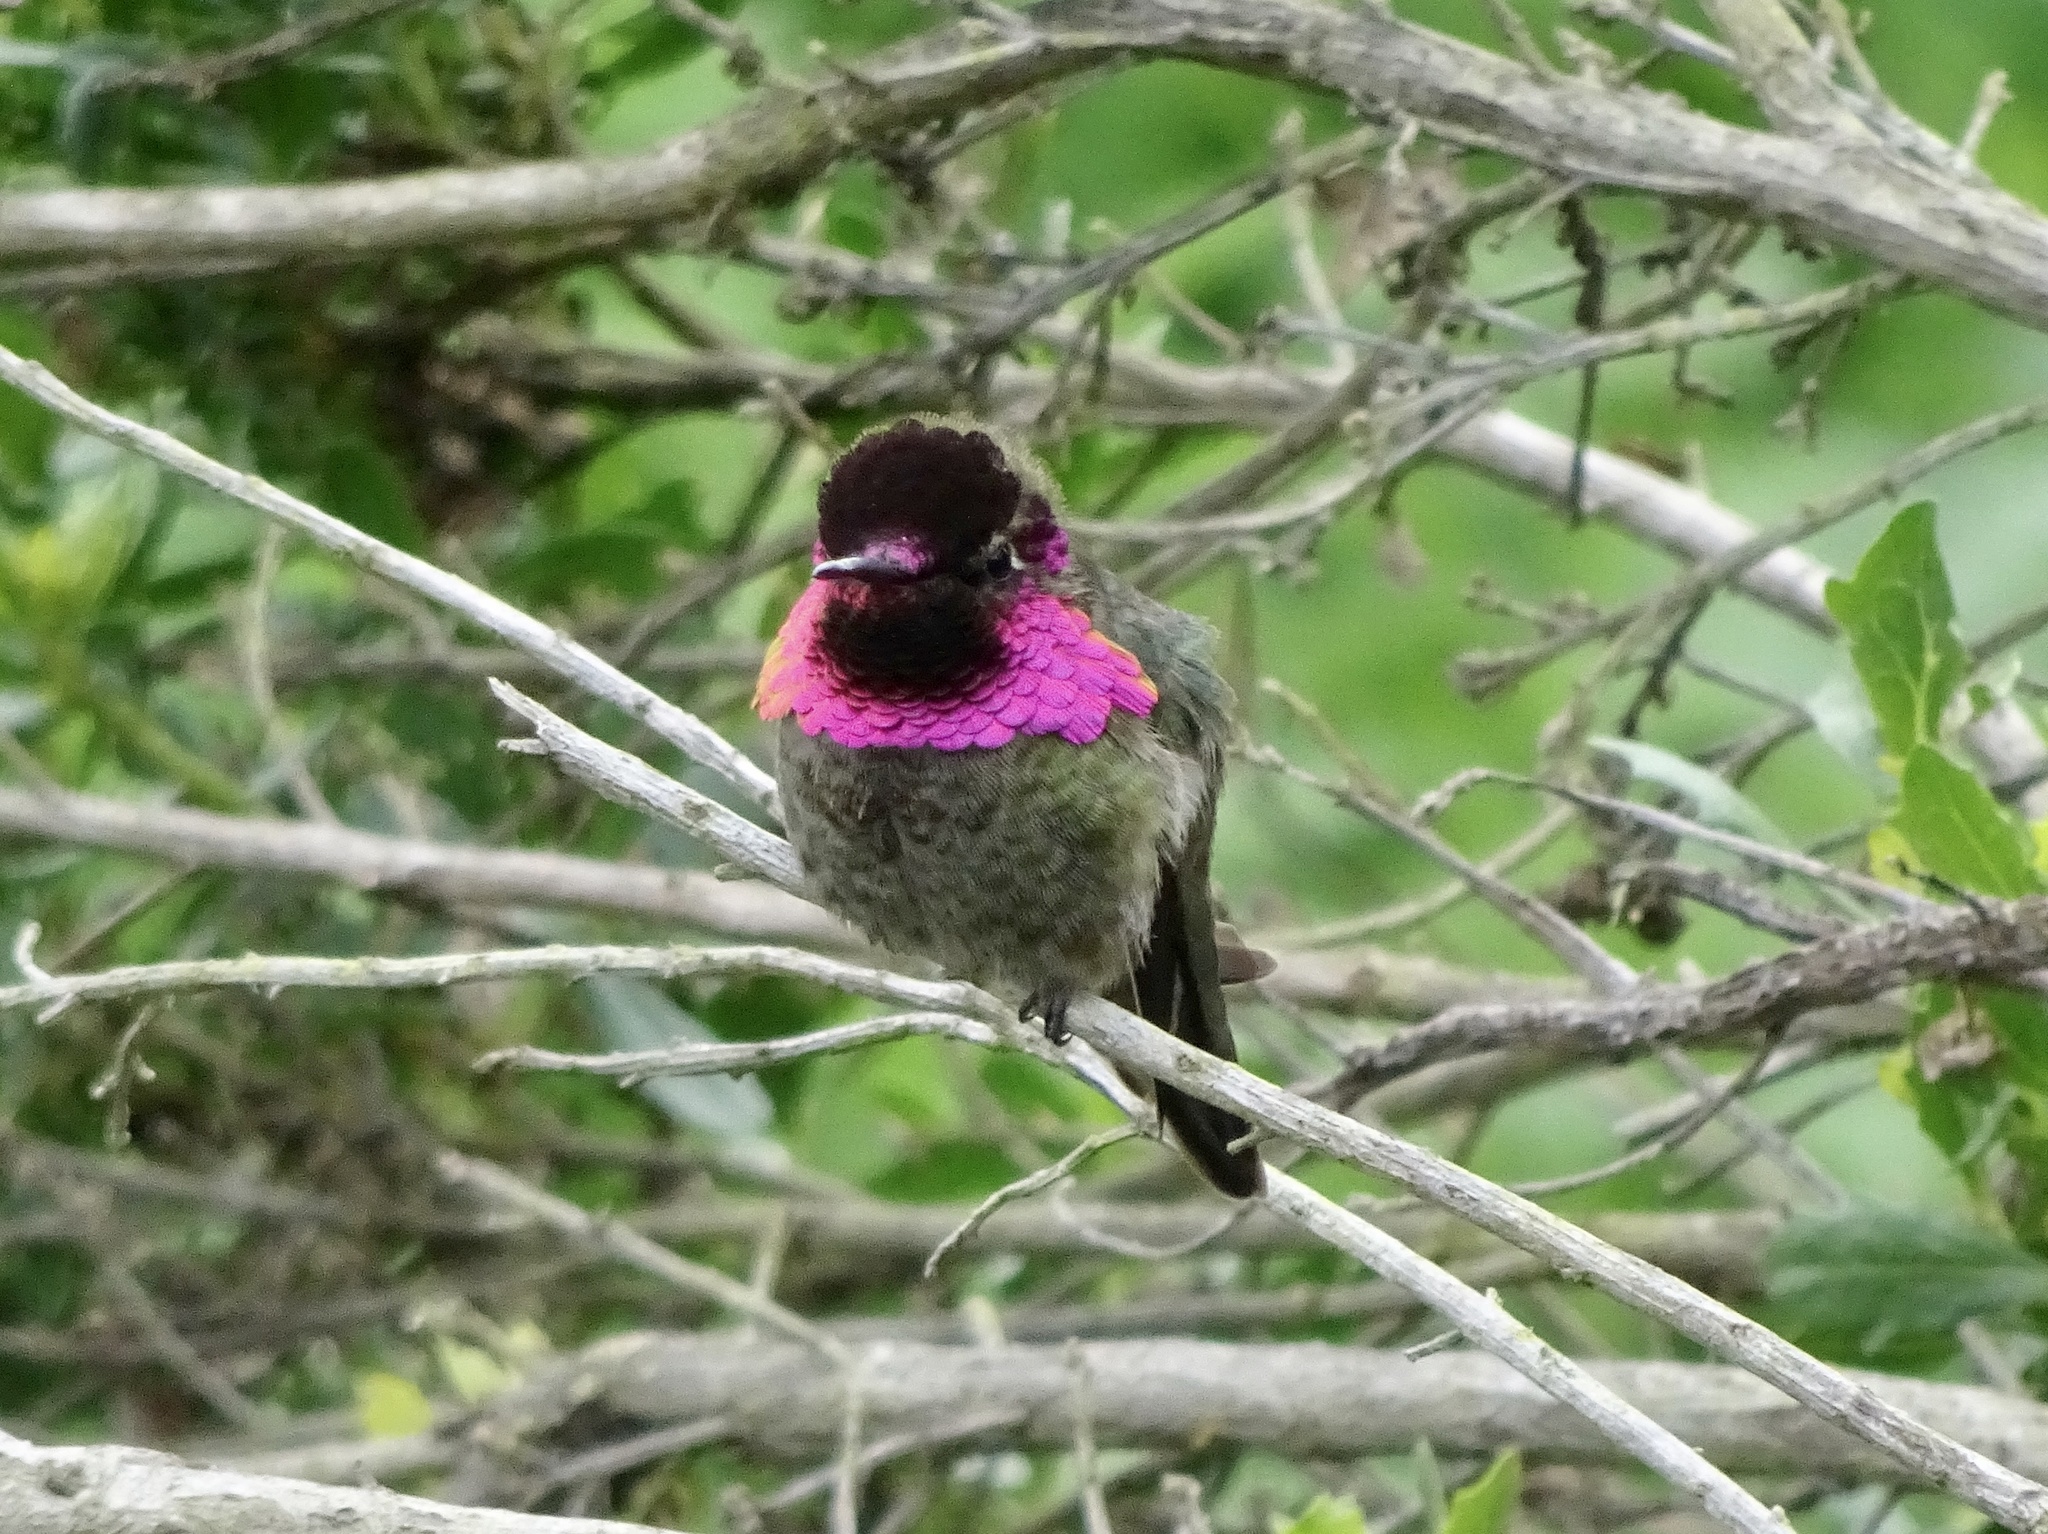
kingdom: Animalia
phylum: Chordata
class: Aves
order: Apodiformes
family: Trochilidae
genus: Calypte
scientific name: Calypte anna
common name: Anna's hummingbird
